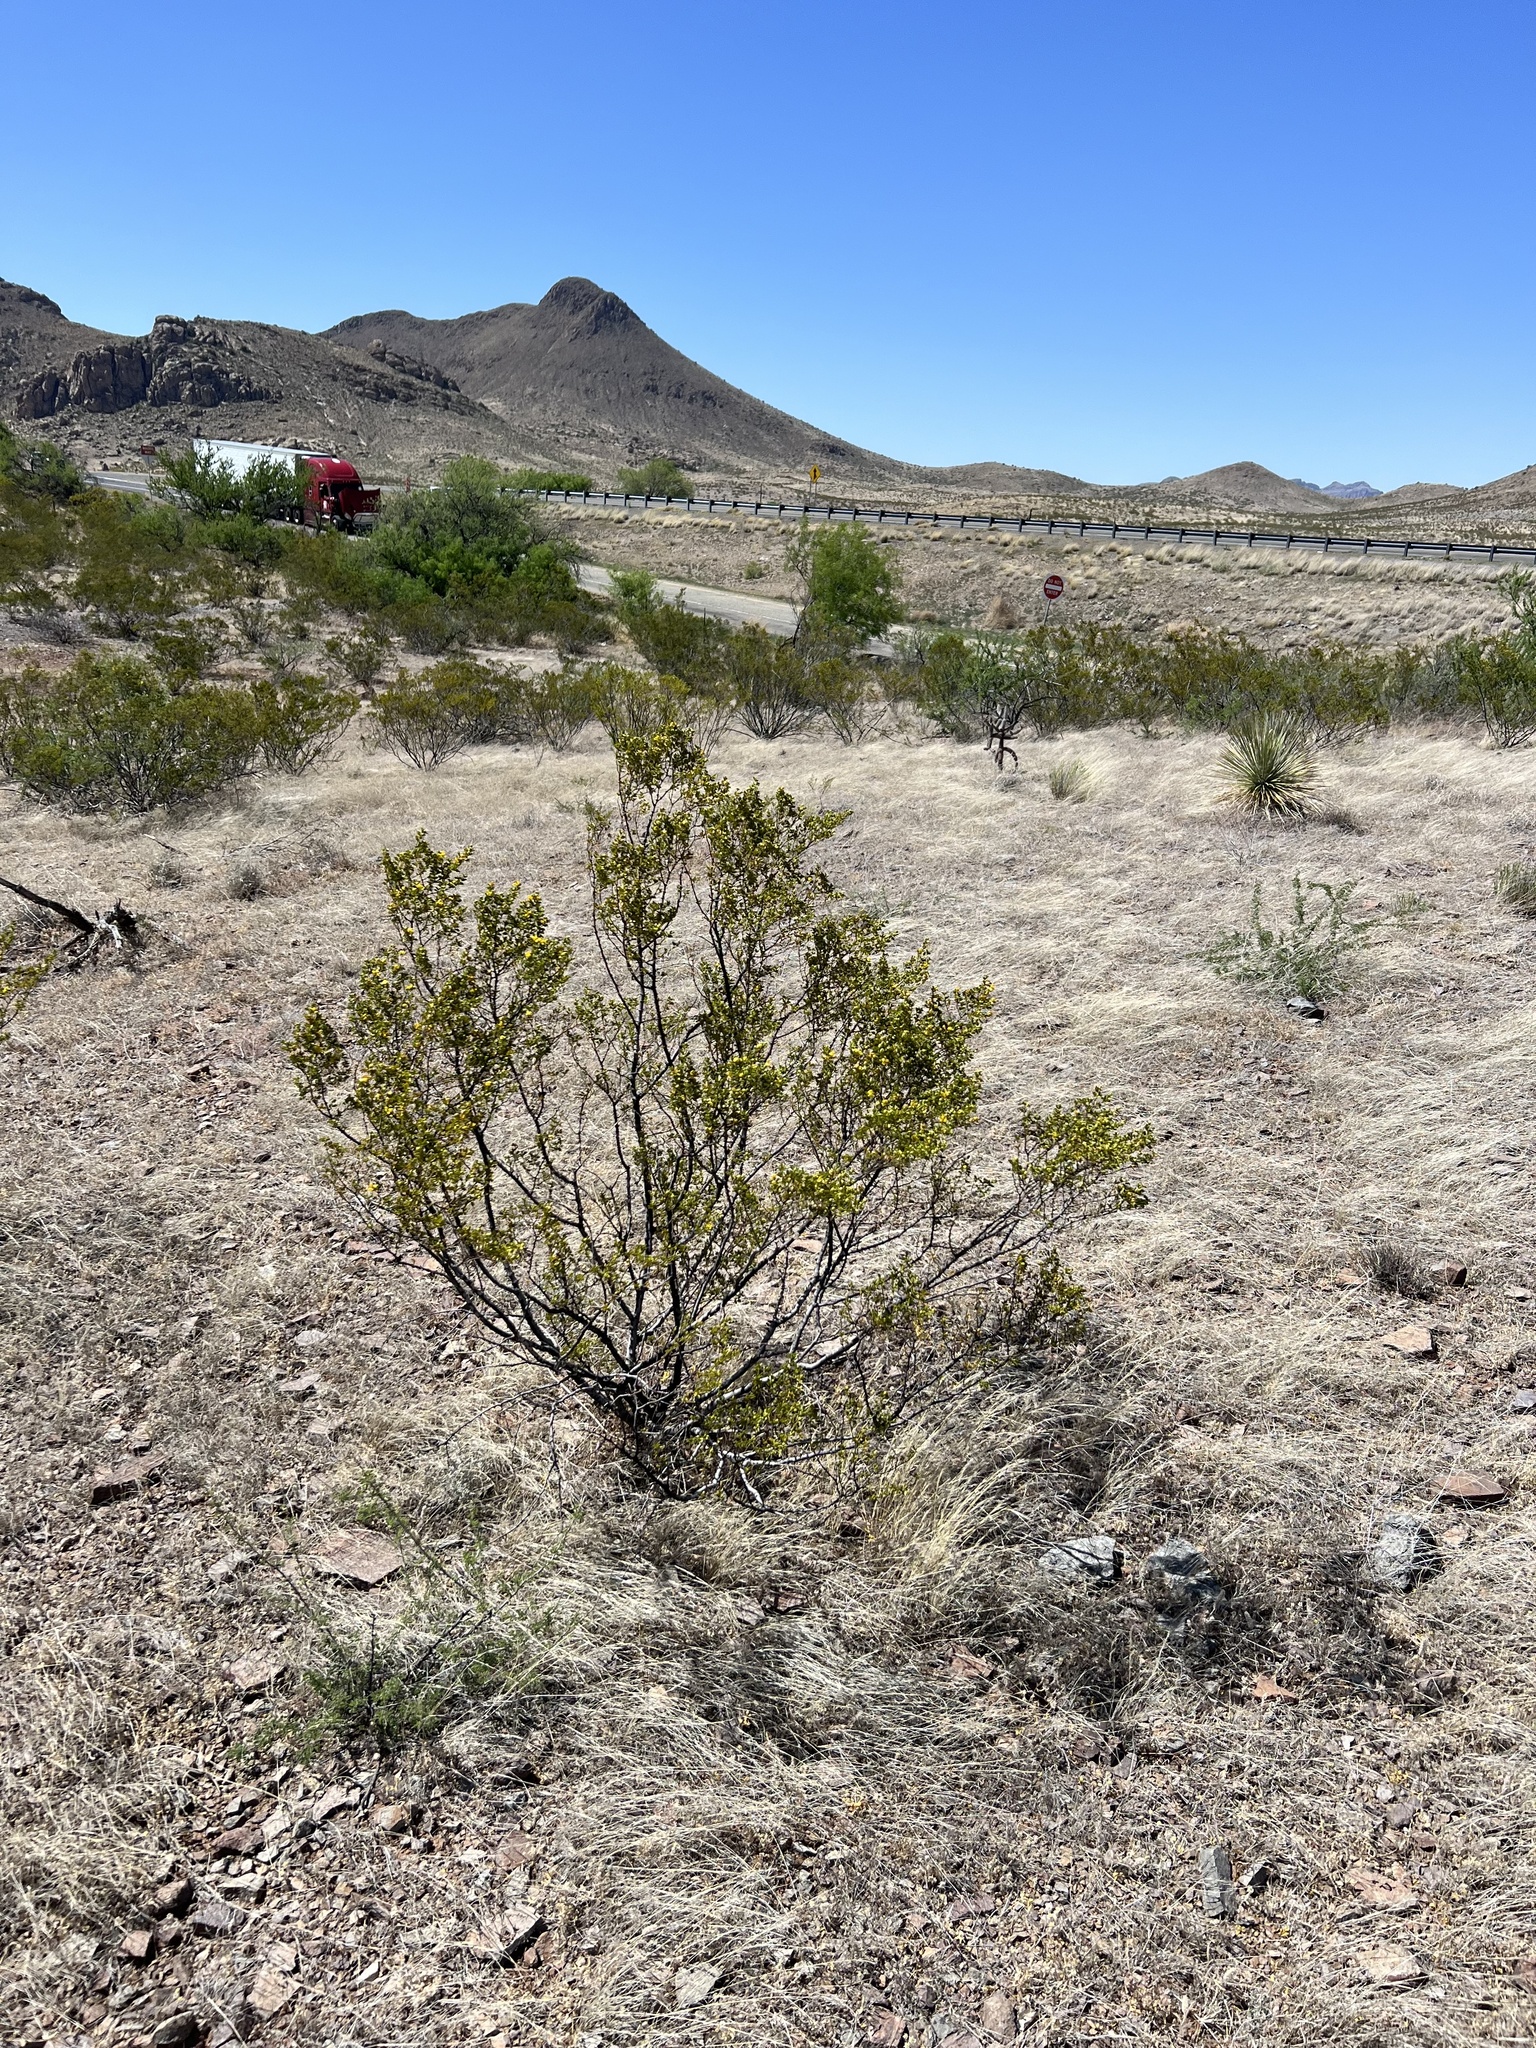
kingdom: Plantae
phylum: Tracheophyta
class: Magnoliopsida
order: Zygophyllales
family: Zygophyllaceae
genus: Larrea
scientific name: Larrea tridentata
